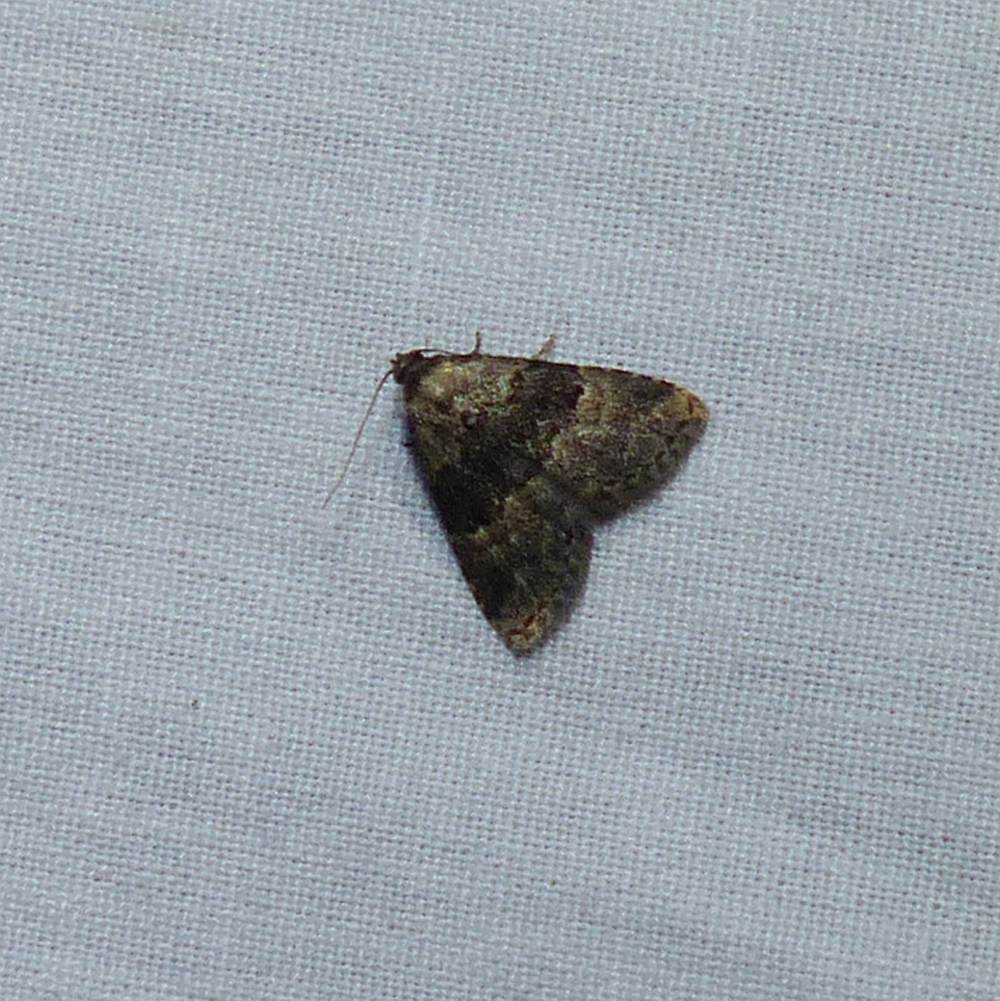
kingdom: Animalia
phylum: Arthropoda
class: Insecta
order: Lepidoptera
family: Erebidae
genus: Dyspyralis
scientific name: Dyspyralis illocata
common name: Visitation moth
